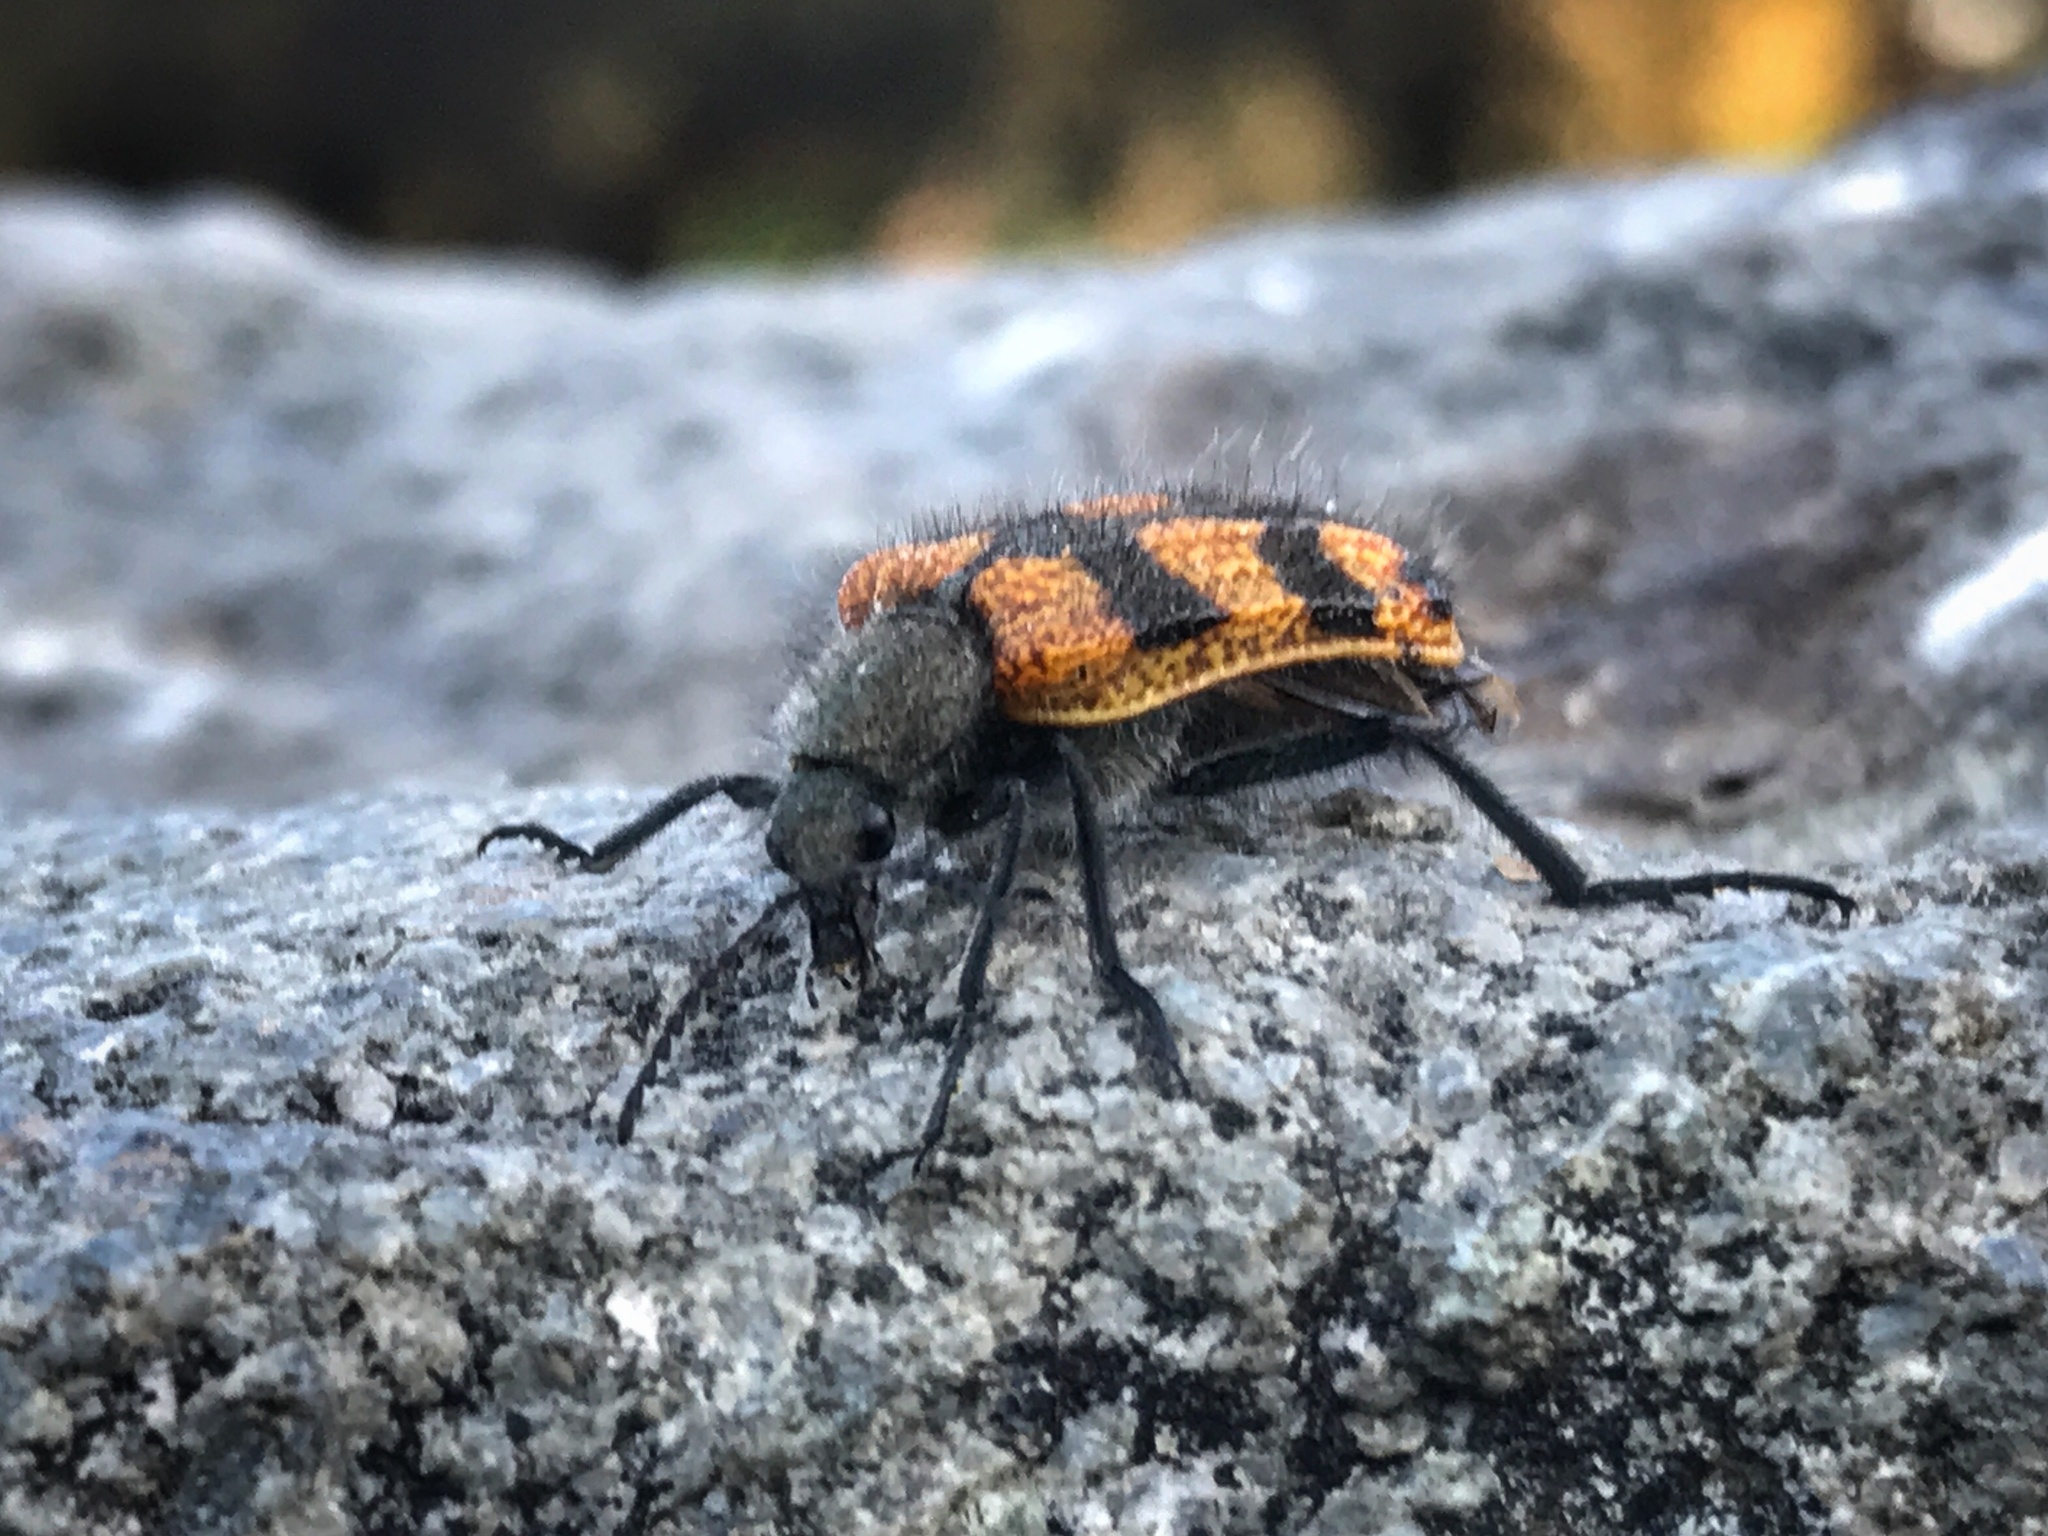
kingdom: Animalia
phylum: Arthropoda
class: Insecta
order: Coleoptera
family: Melyridae
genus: Astylus
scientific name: Astylus
